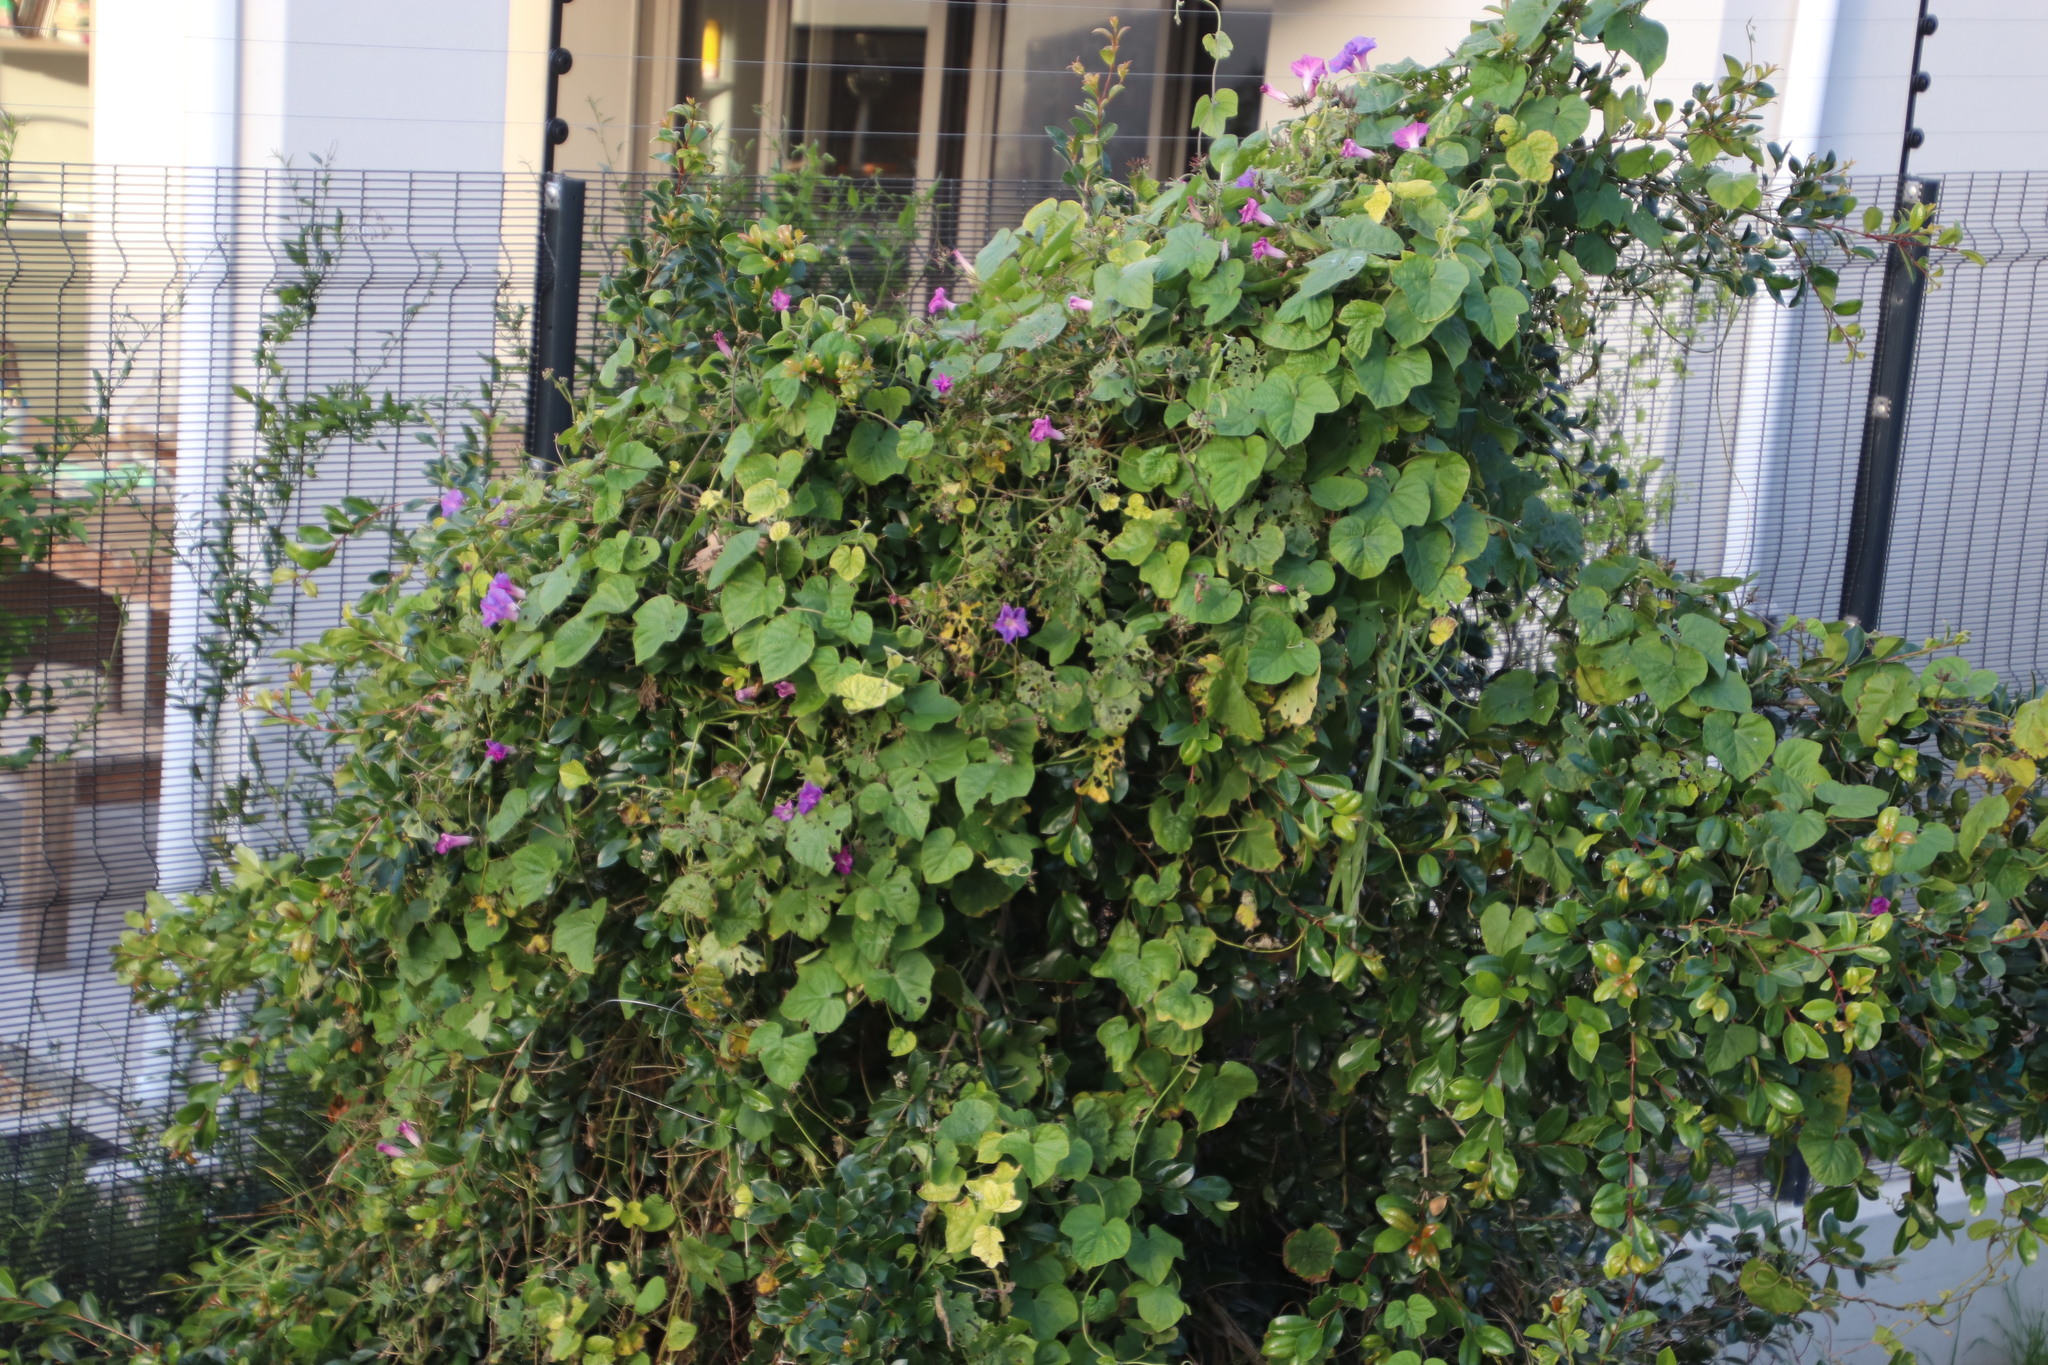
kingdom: Plantae
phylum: Tracheophyta
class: Magnoliopsida
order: Solanales
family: Convolvulaceae
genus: Ipomoea
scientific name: Ipomoea indica
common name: Blue dawnflower
